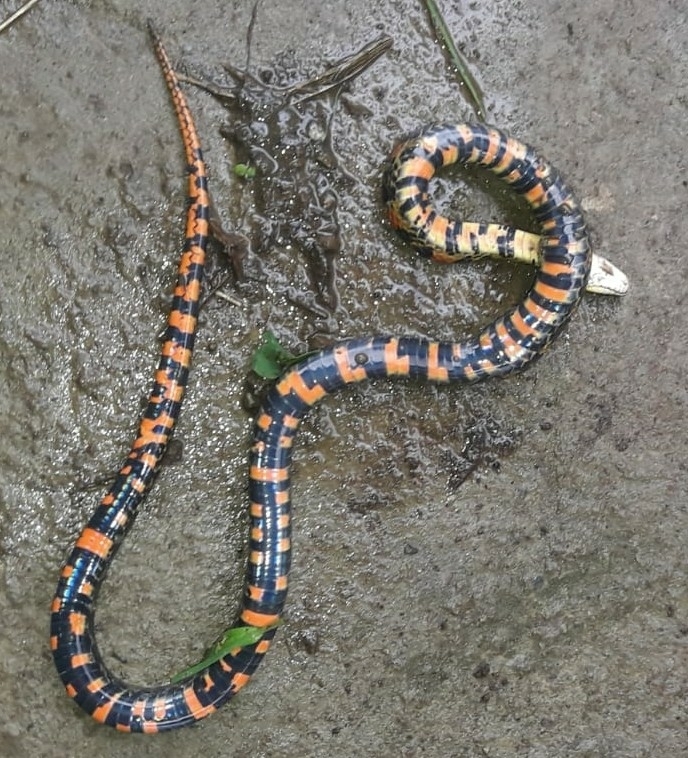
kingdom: Animalia
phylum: Chordata
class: Squamata
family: Colubridae
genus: Erythrolamprus
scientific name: Erythrolamprus epinephalus
